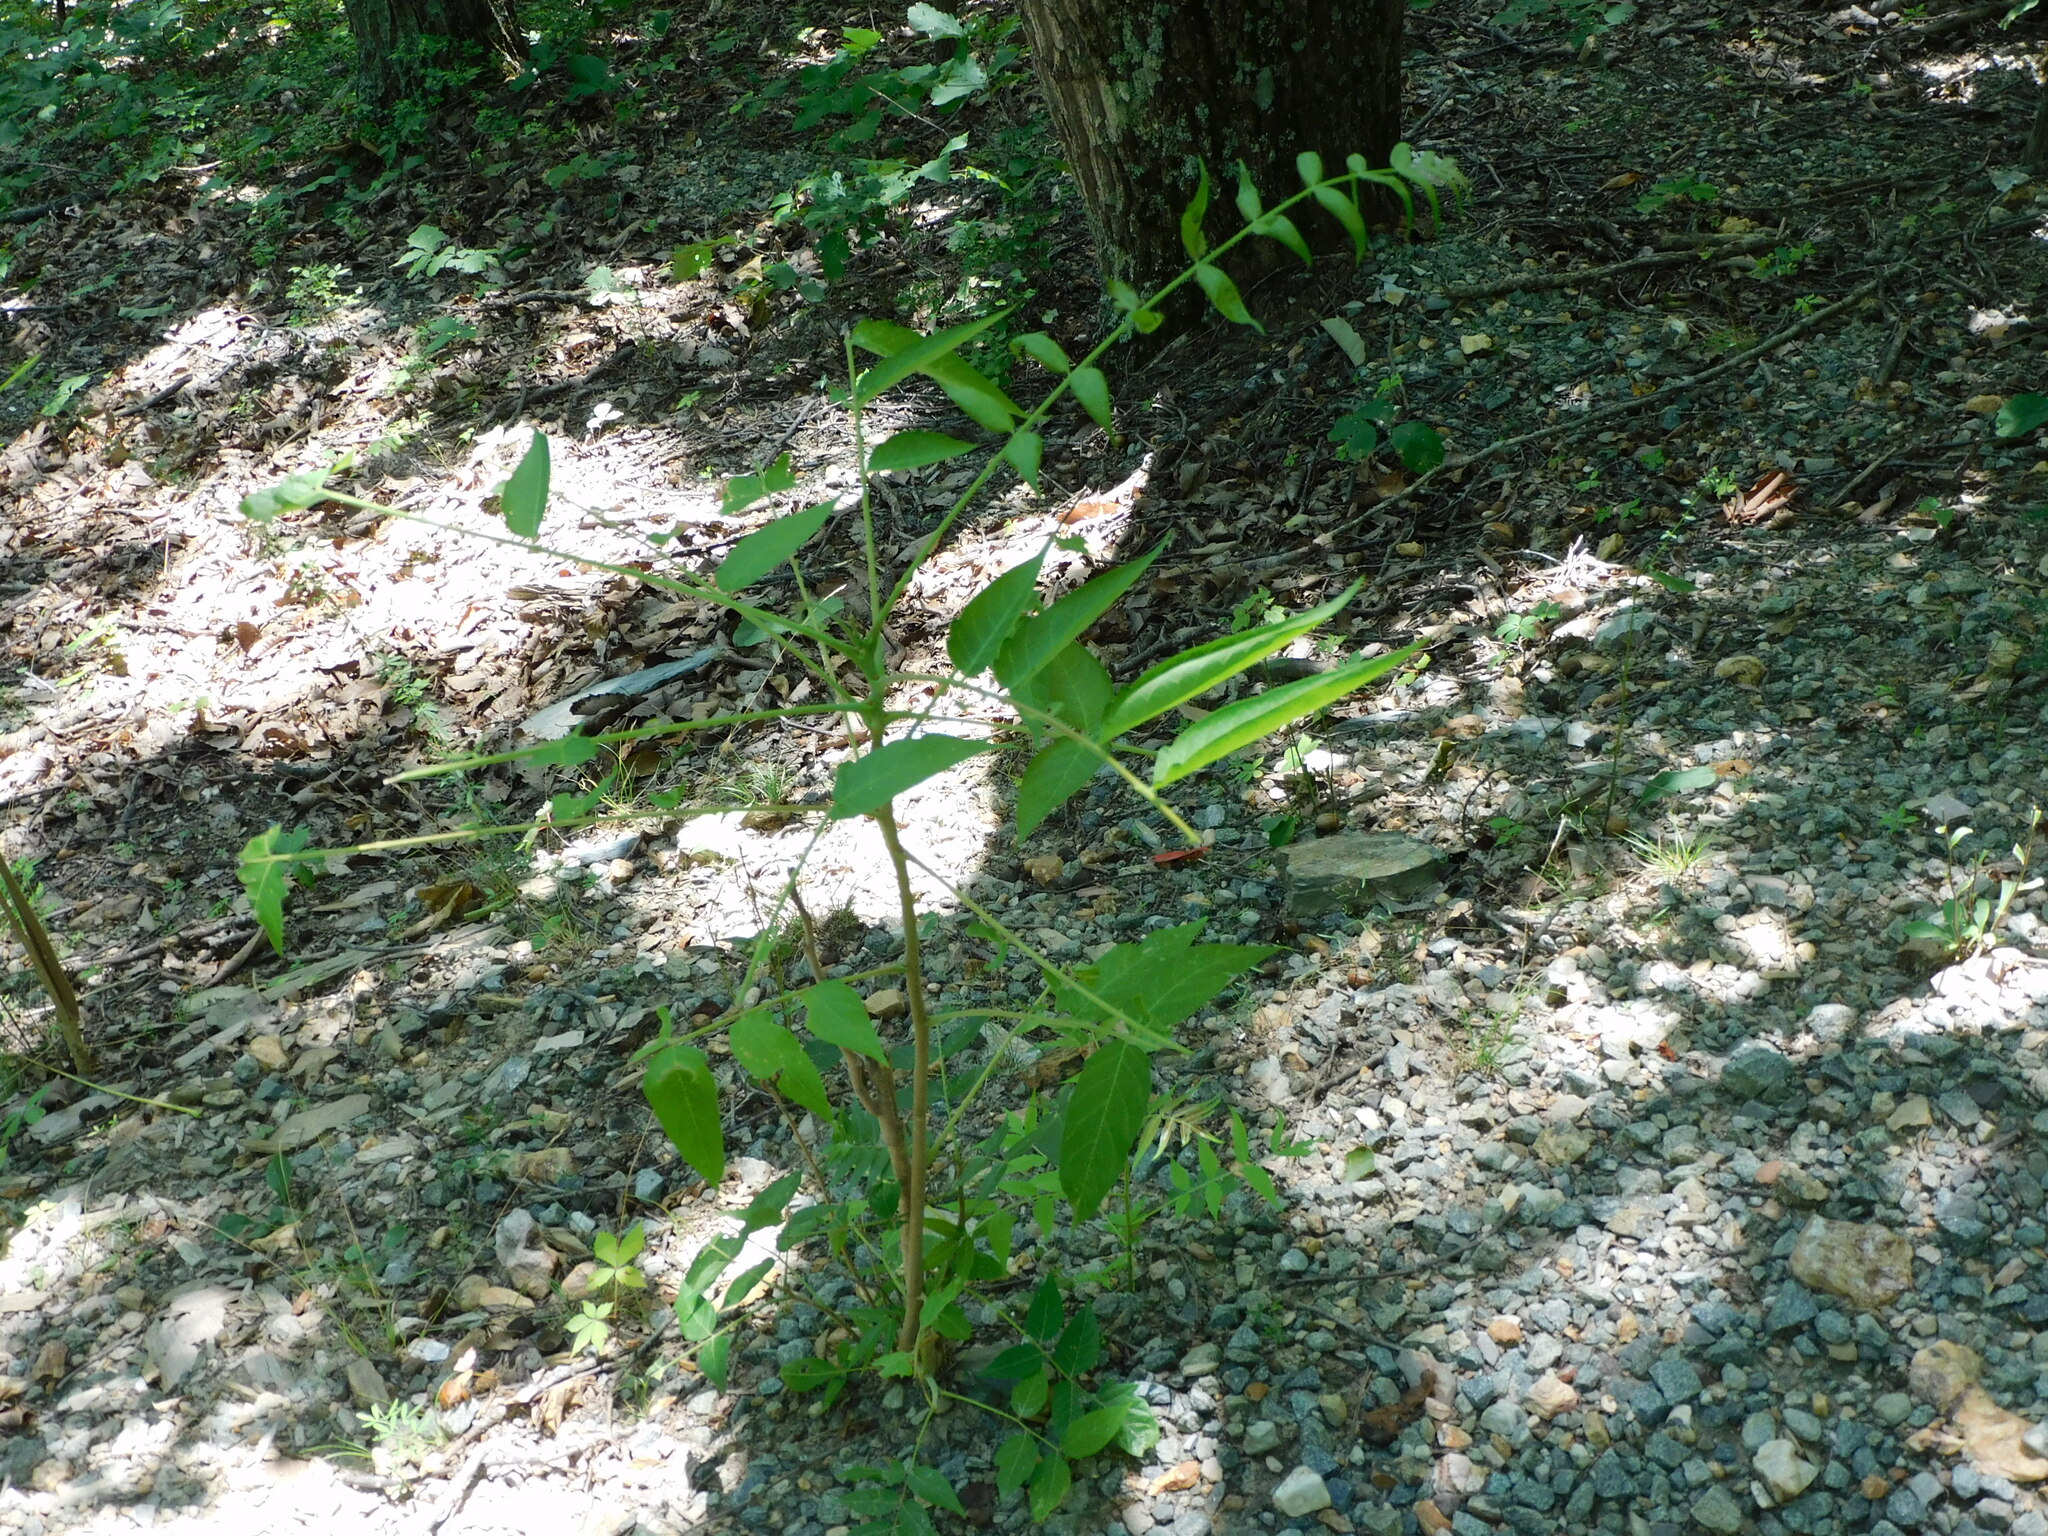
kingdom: Plantae
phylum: Tracheophyta
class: Magnoliopsida
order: Sapindales
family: Simaroubaceae
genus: Ailanthus
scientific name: Ailanthus altissima
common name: Tree-of-heaven
